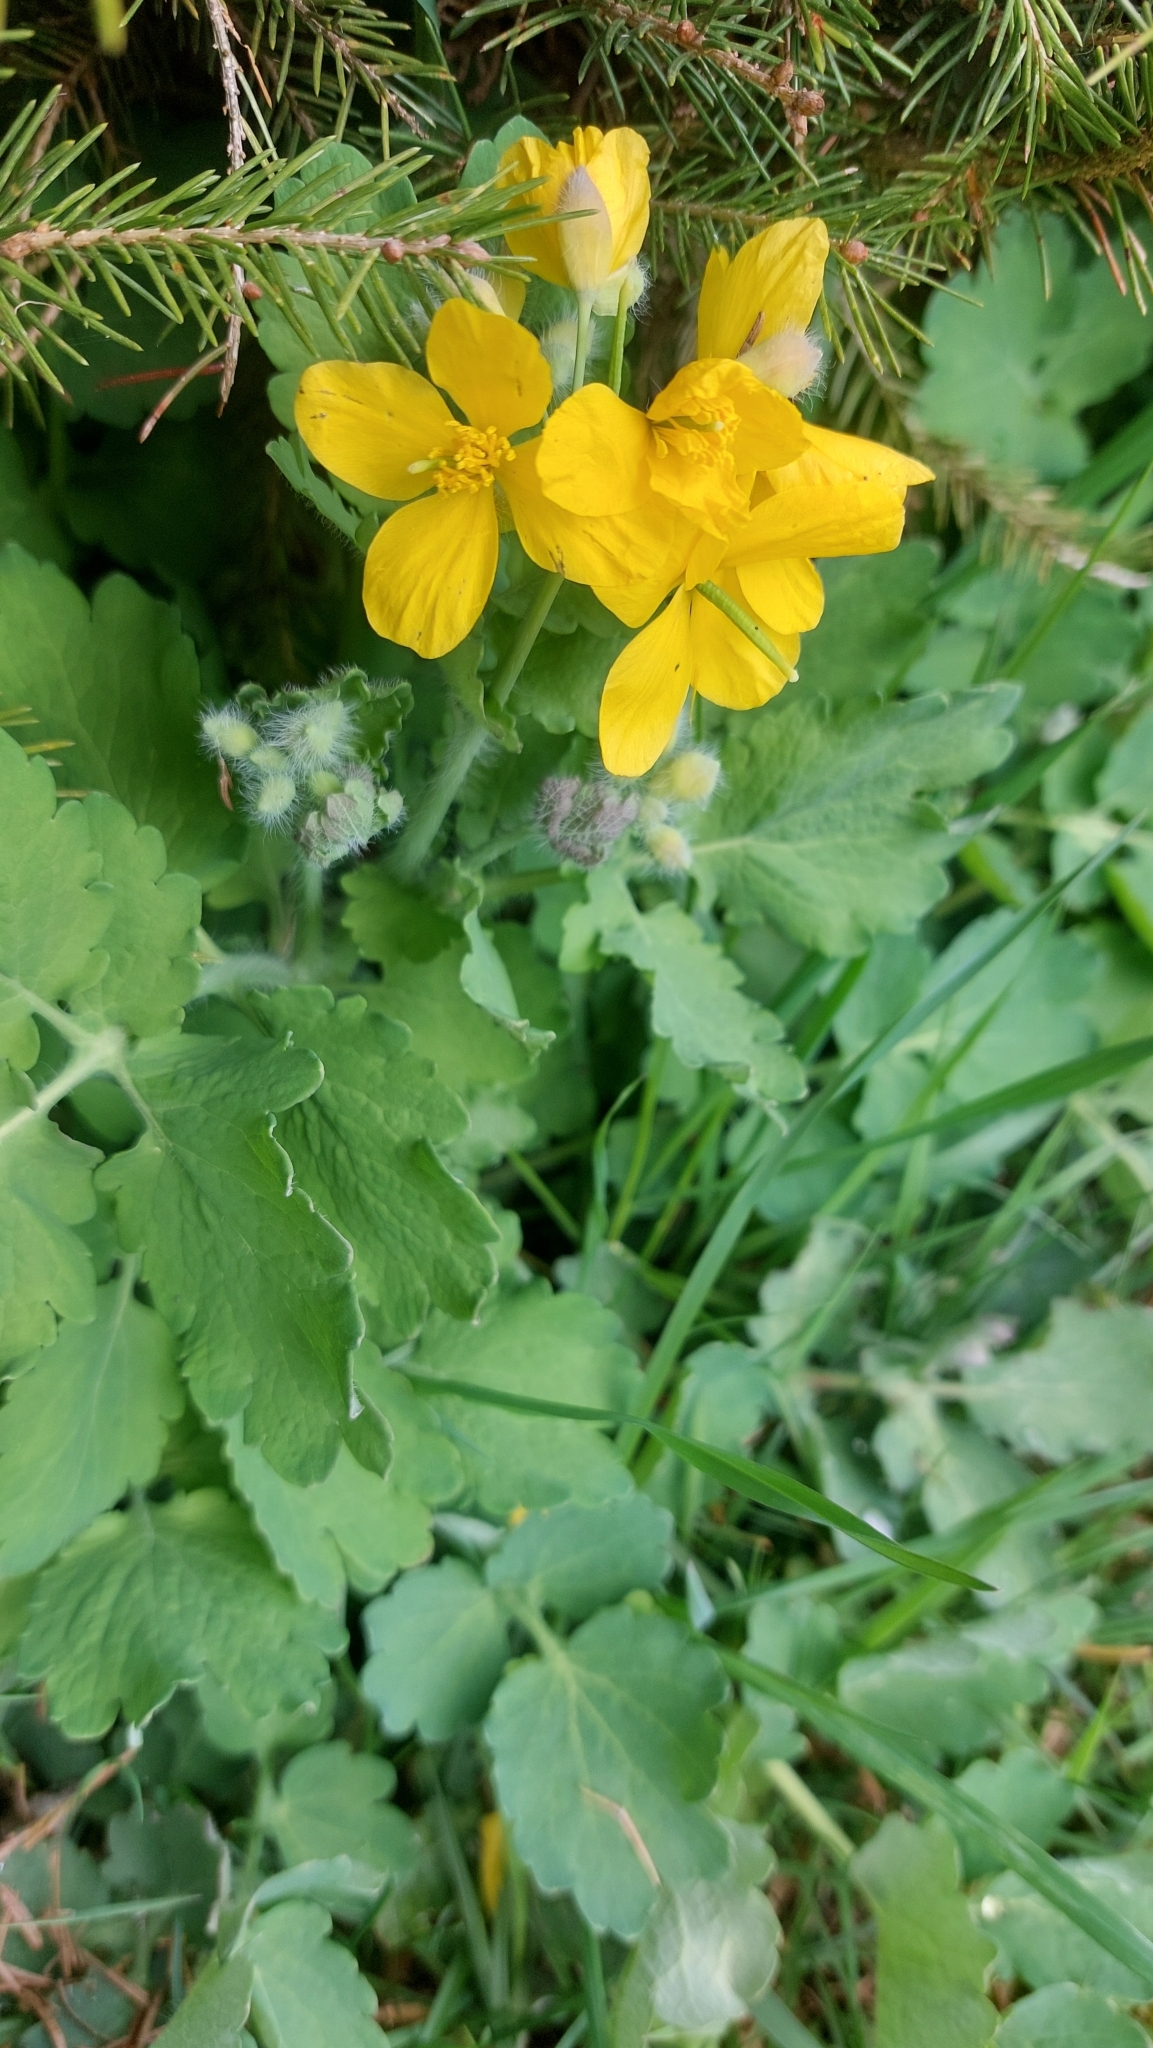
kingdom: Plantae
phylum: Tracheophyta
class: Magnoliopsida
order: Ranunculales
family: Papaveraceae
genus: Chelidonium
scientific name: Chelidonium majus
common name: Greater celandine
